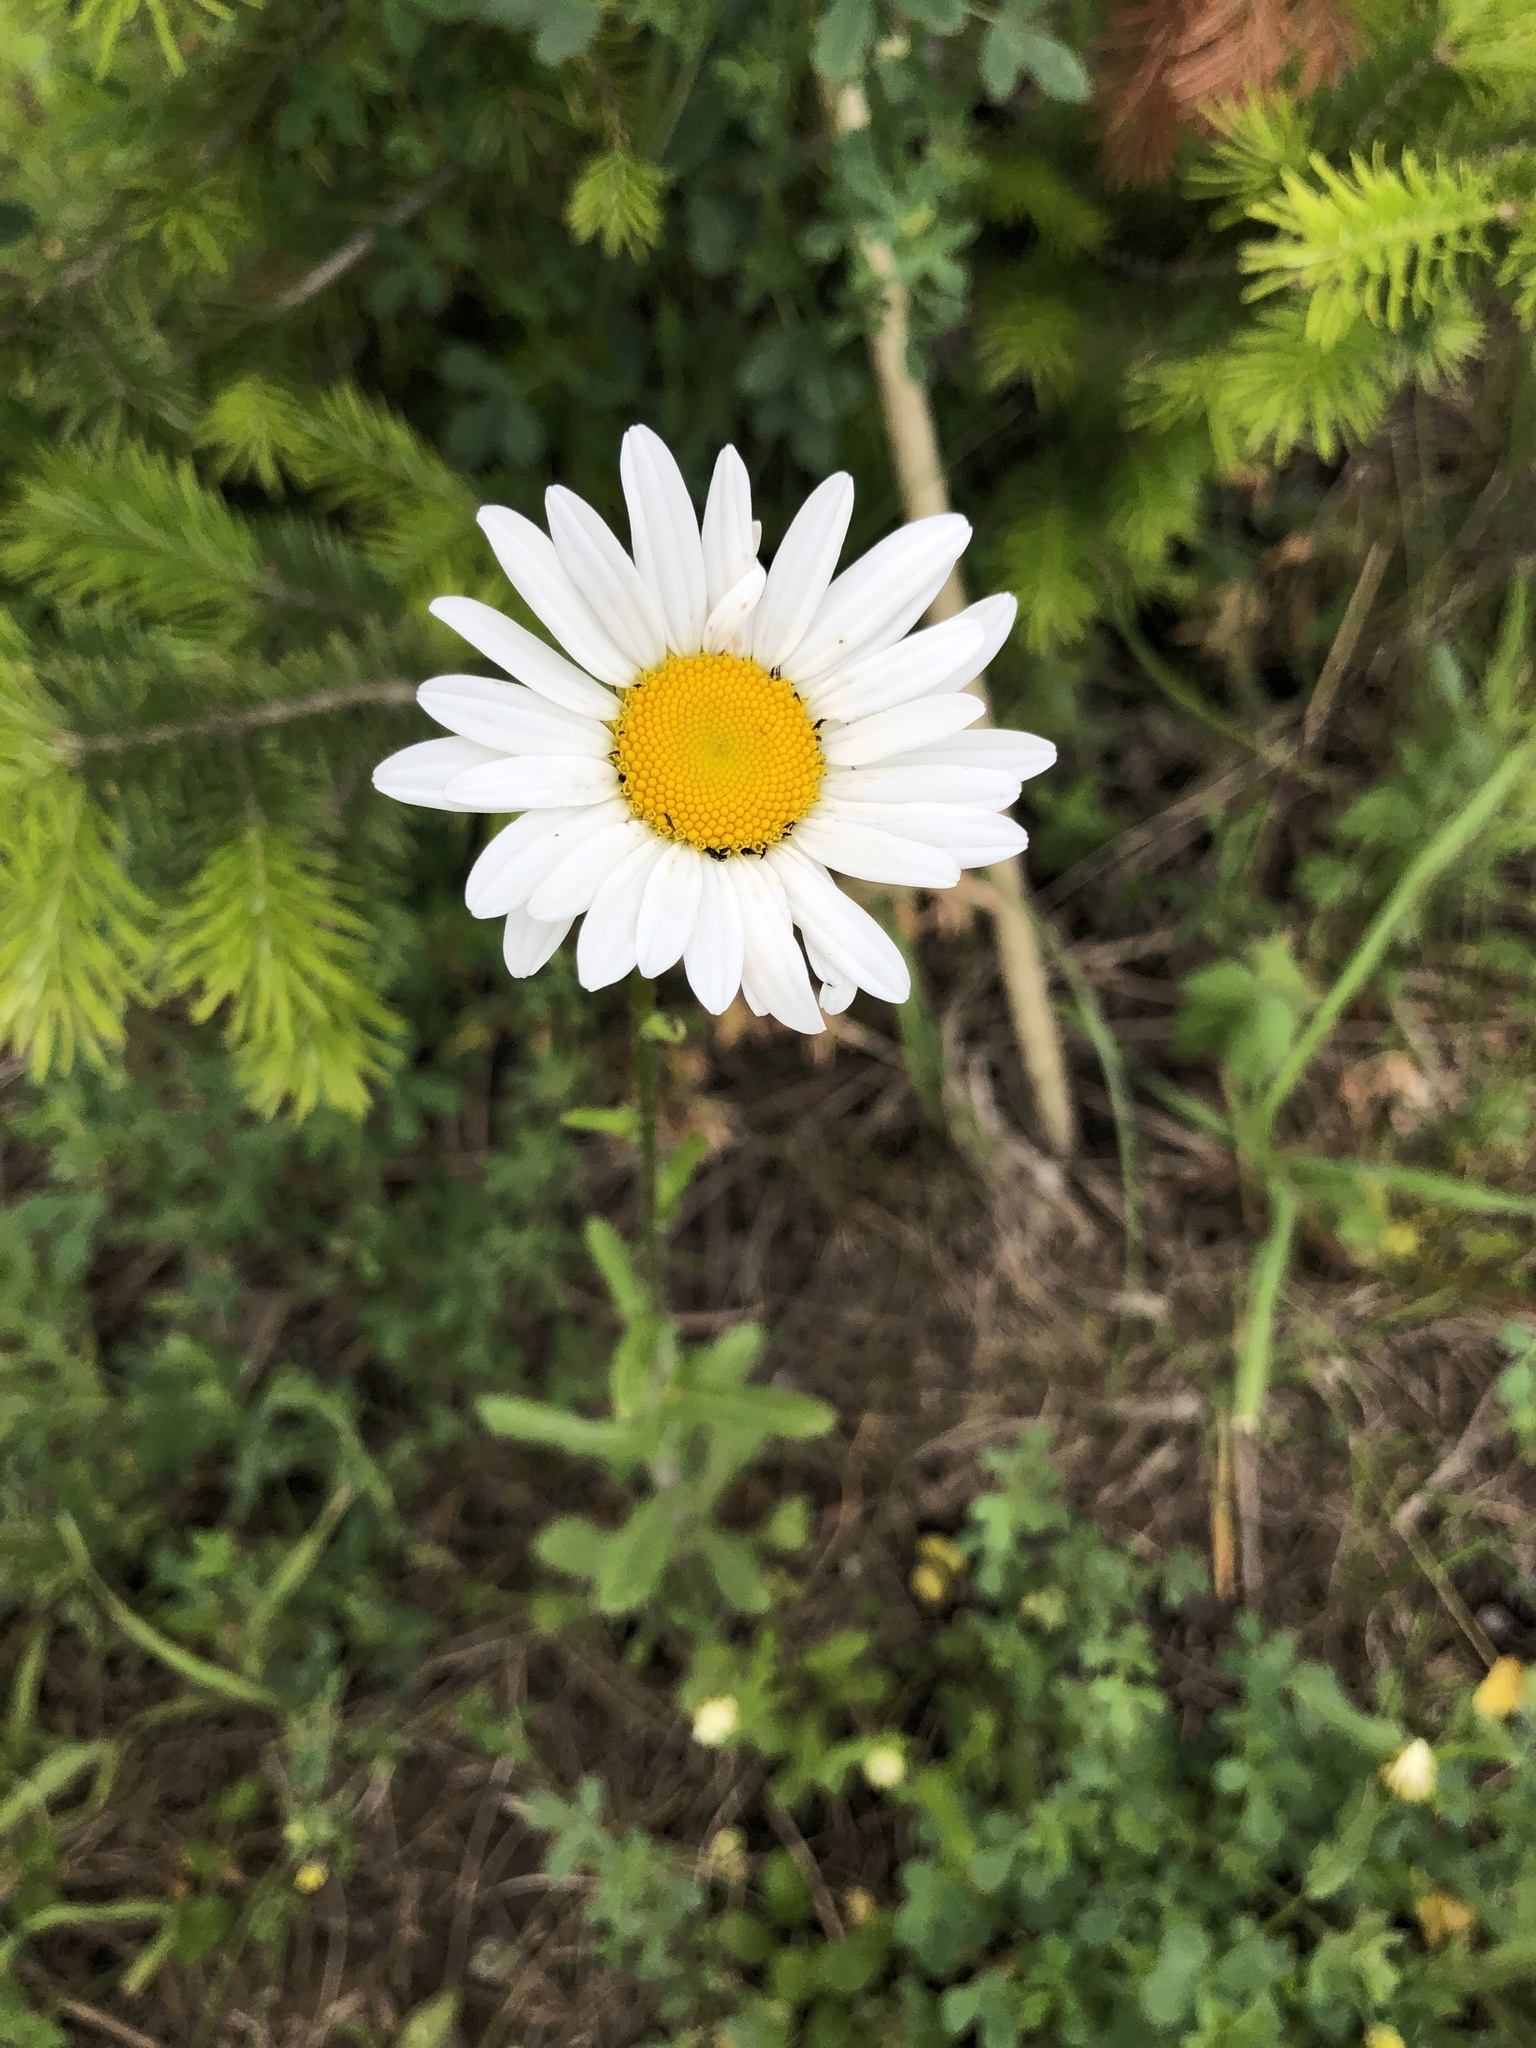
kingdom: Plantae
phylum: Tracheophyta
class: Magnoliopsida
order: Asterales
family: Asteraceae
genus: Leucanthemum
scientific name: Leucanthemum vulgare
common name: Oxeye daisy
